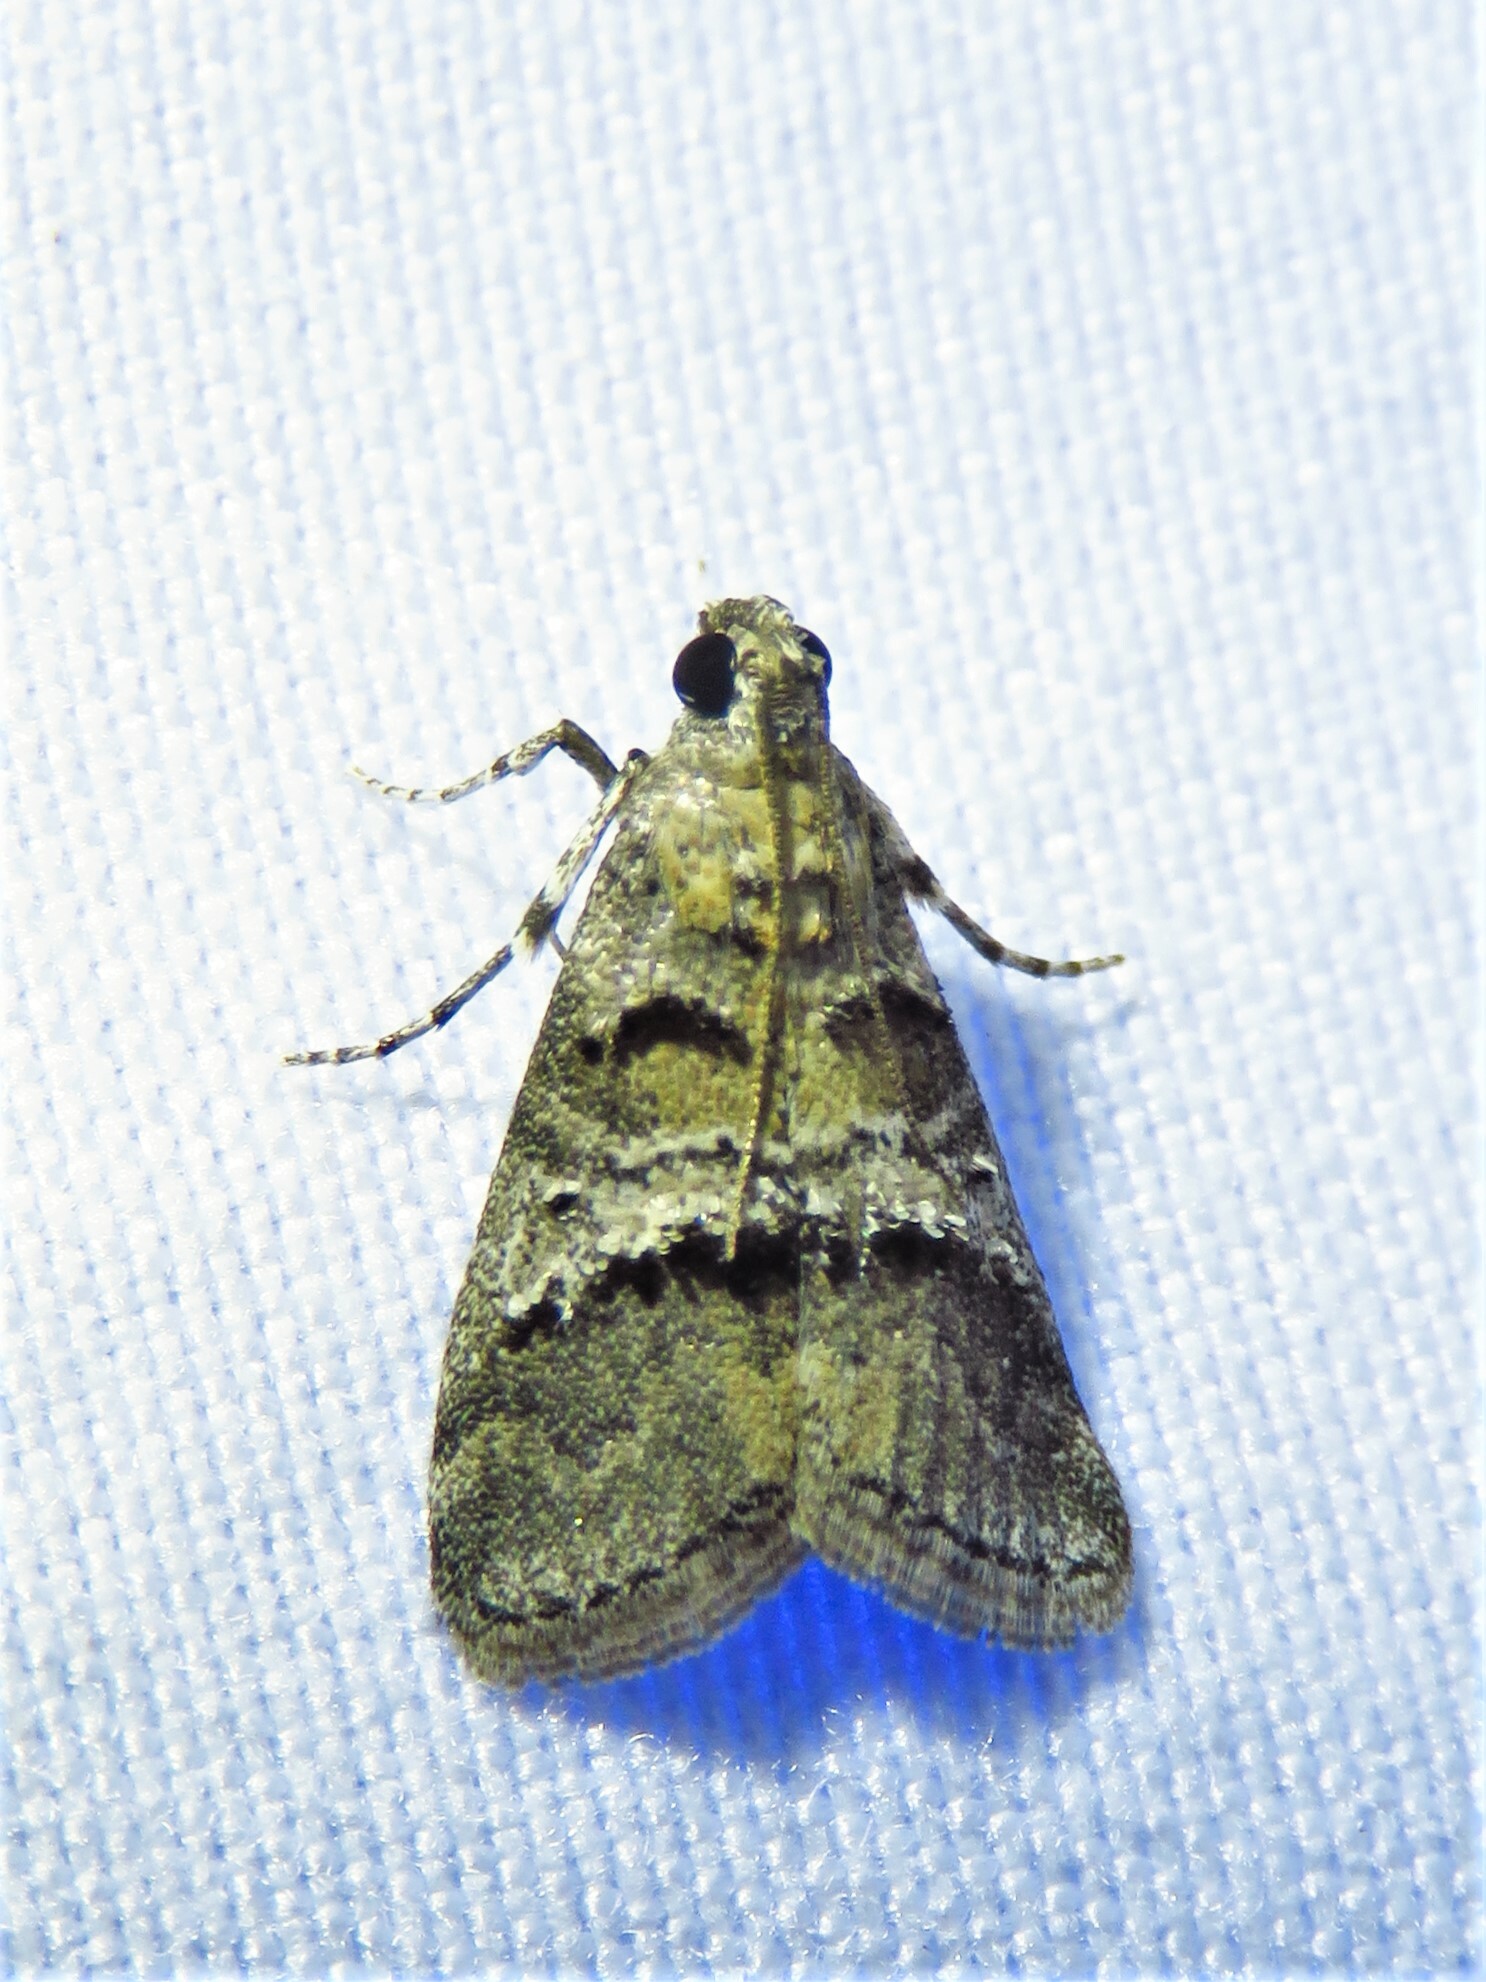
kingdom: Animalia
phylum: Arthropoda
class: Insecta
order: Lepidoptera
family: Pyralidae
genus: Pococera
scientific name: Pococera asperatella
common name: Maple webworm moth
